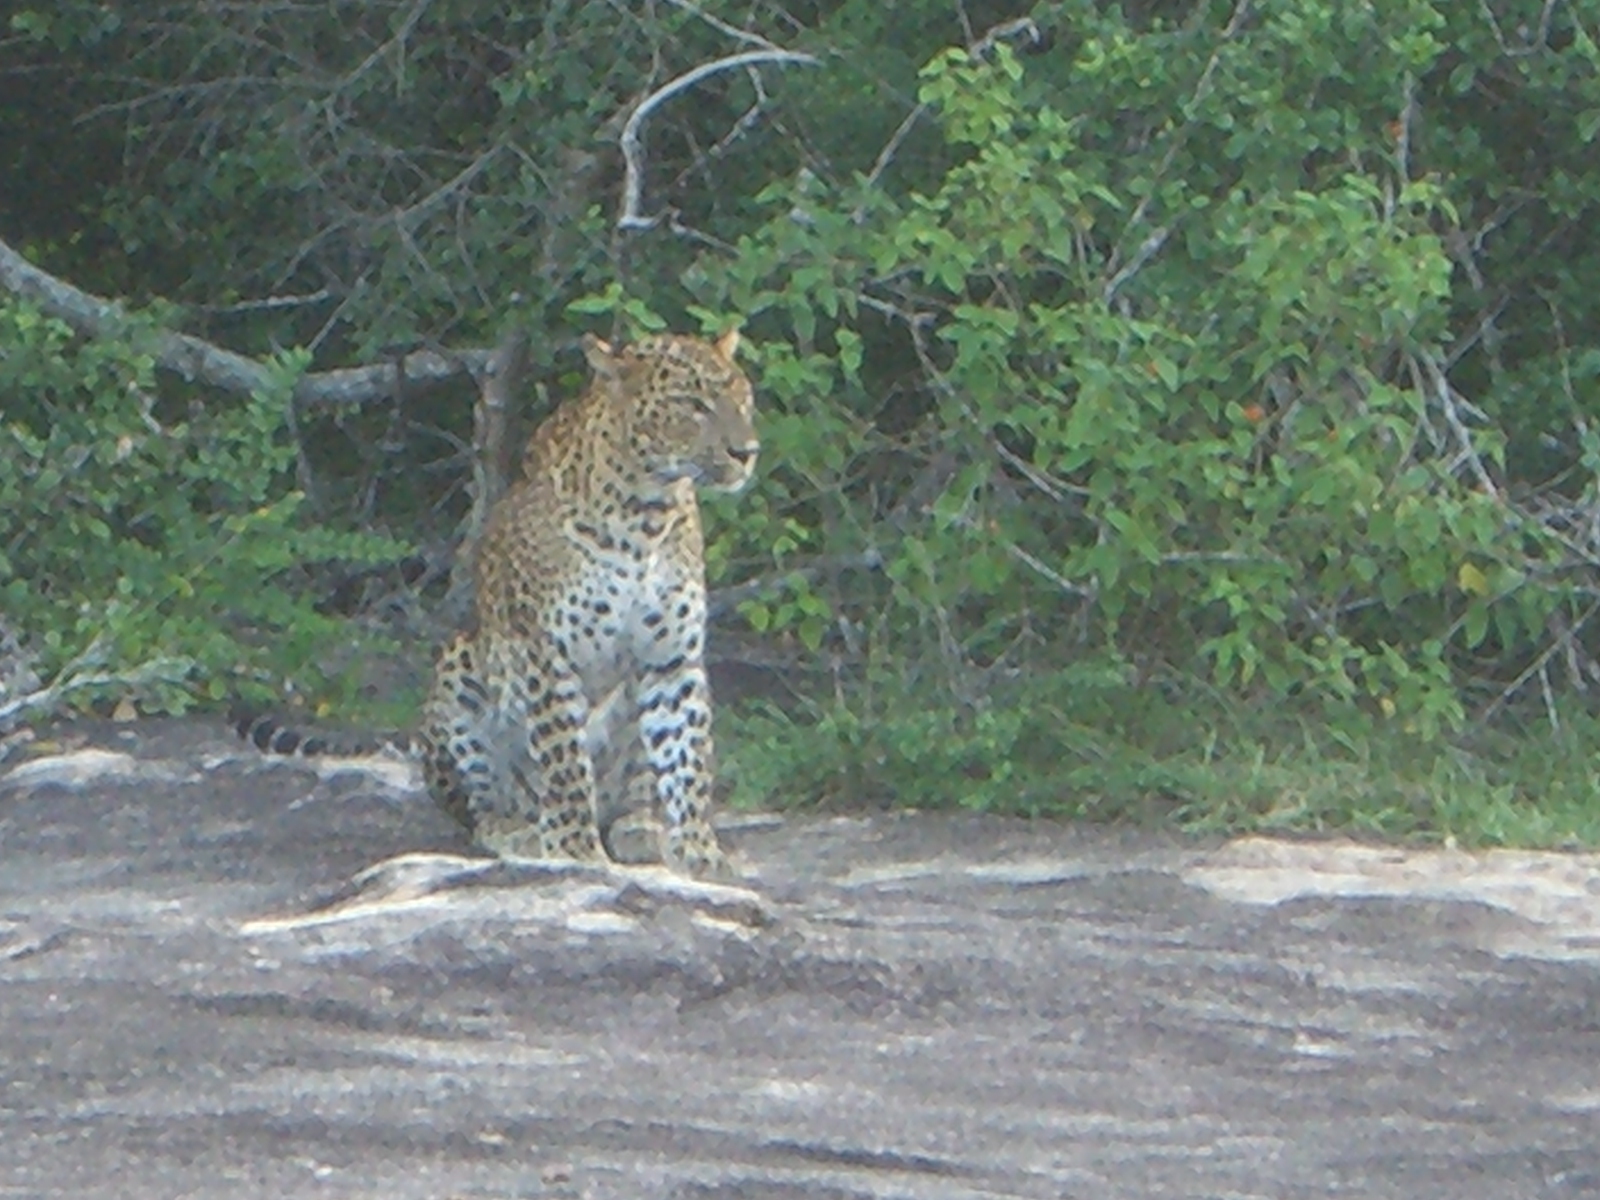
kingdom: Animalia
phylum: Chordata
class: Mammalia
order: Carnivora
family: Felidae
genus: Panthera
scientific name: Panthera pardus
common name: Leopard
